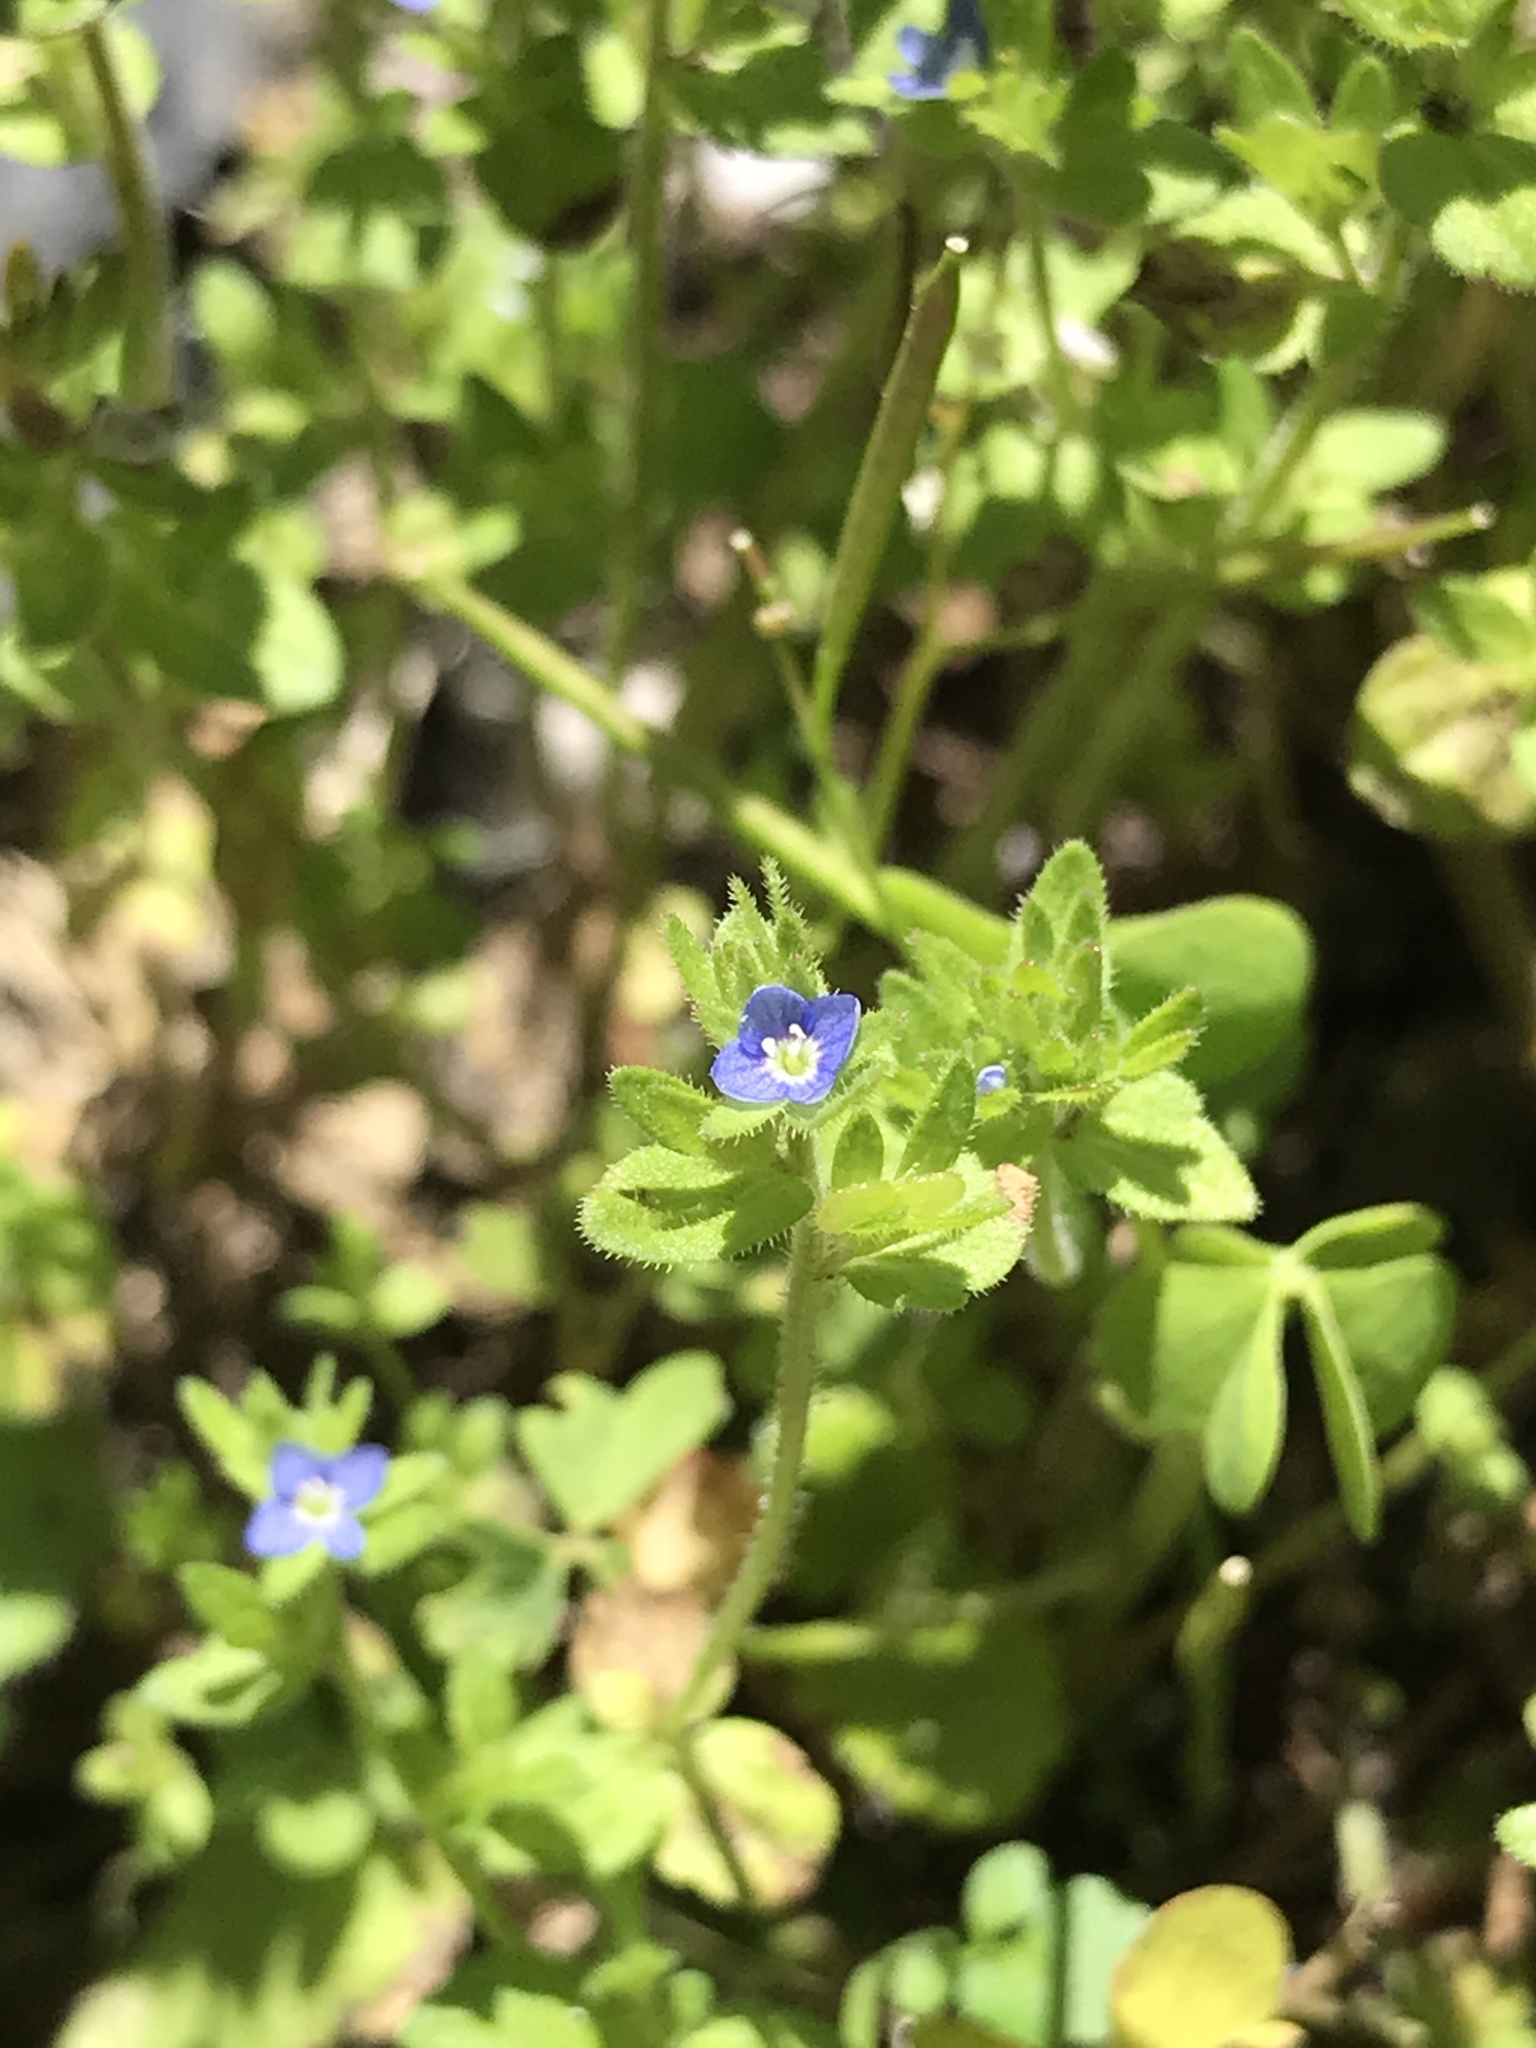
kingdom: Plantae
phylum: Tracheophyta
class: Magnoliopsida
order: Lamiales
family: Plantaginaceae
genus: Veronica
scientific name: Veronica arvensis
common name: Corn speedwell
